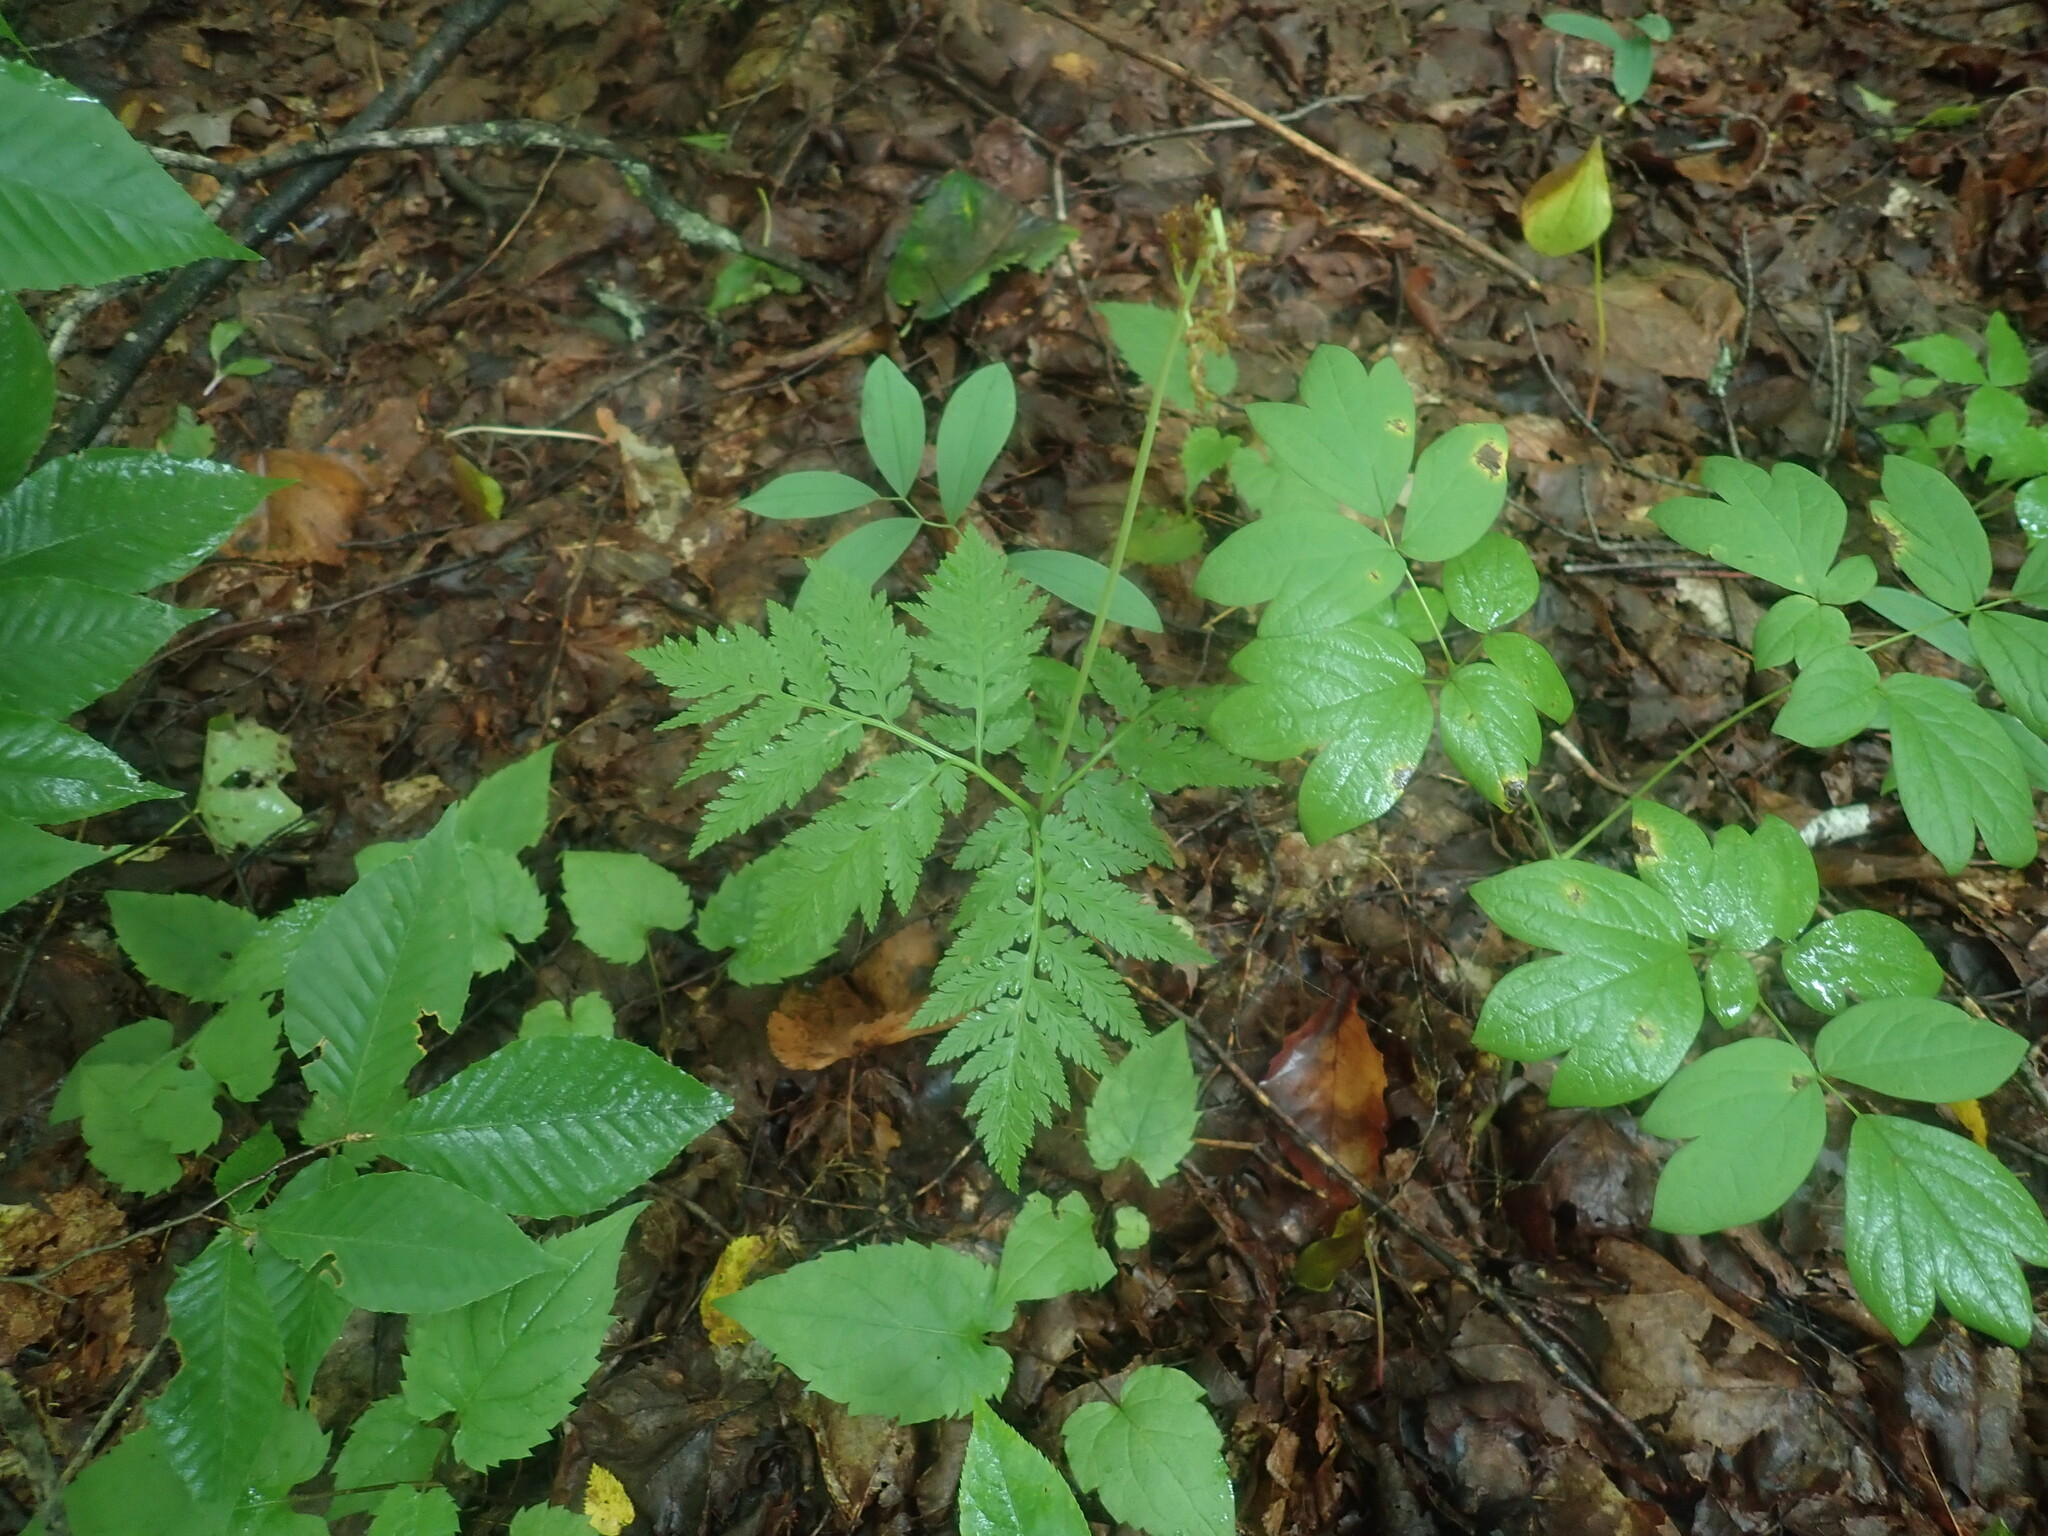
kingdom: Plantae
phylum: Tracheophyta
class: Polypodiopsida
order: Ophioglossales
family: Ophioglossaceae
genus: Botrypus
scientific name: Botrypus virginianus
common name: Common grapefern
